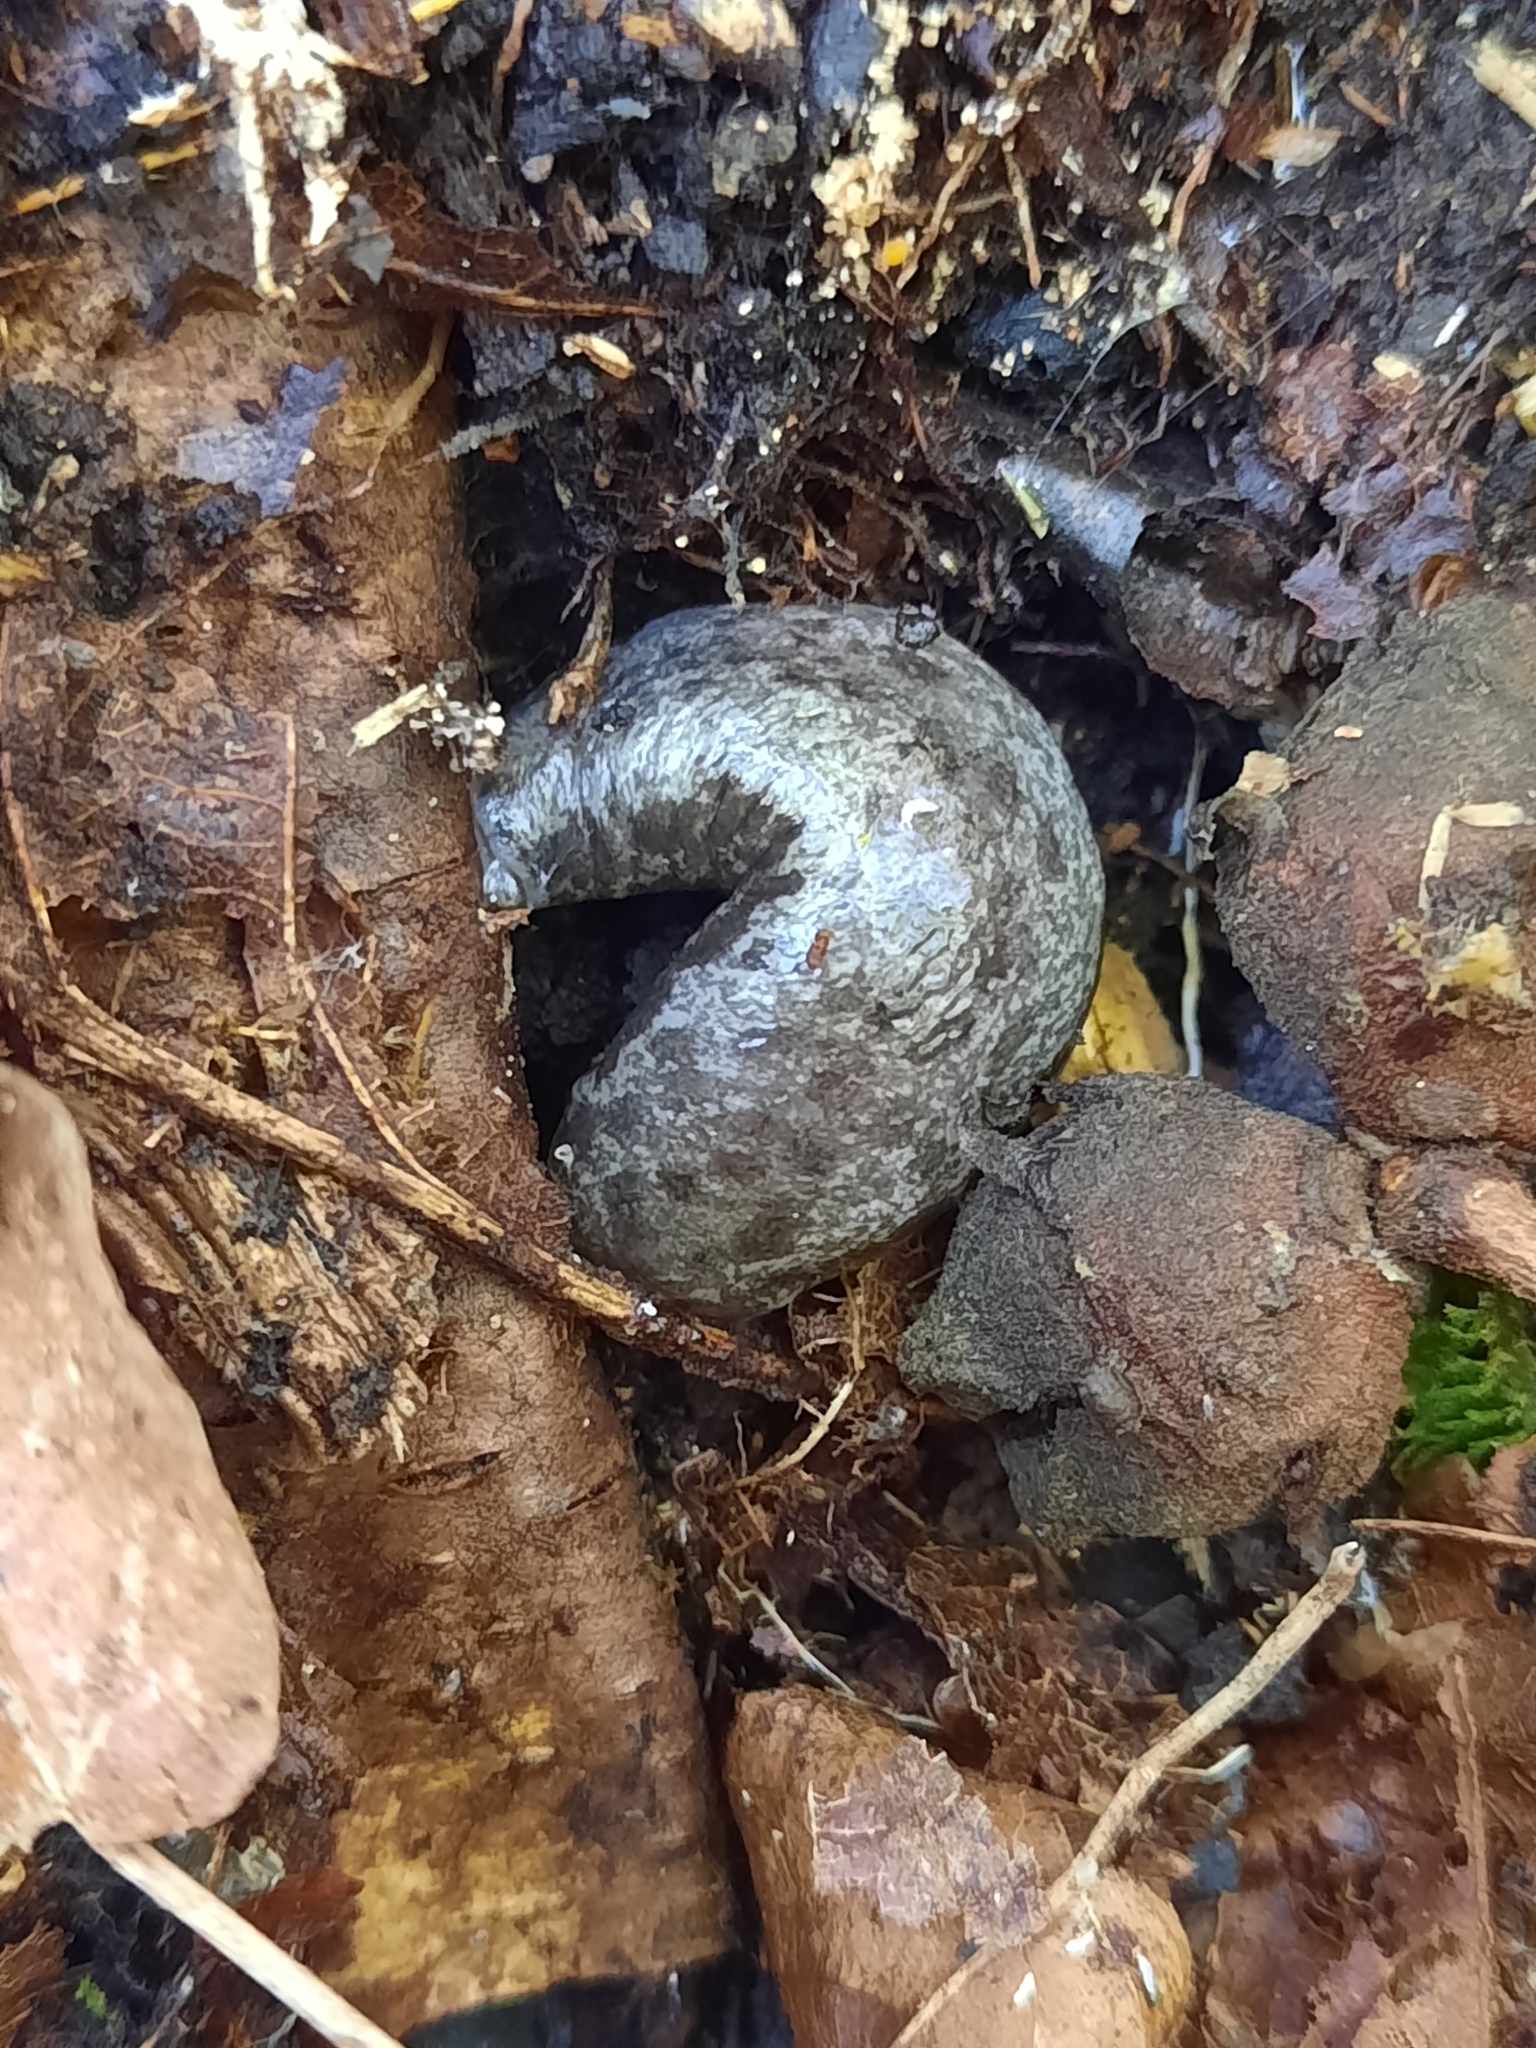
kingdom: Animalia
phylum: Mollusca
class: Gastropoda
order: Stylommatophora
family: Philomycidae
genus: Megapallifera
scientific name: Megapallifera mutabilis
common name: Changeable mantleslug
